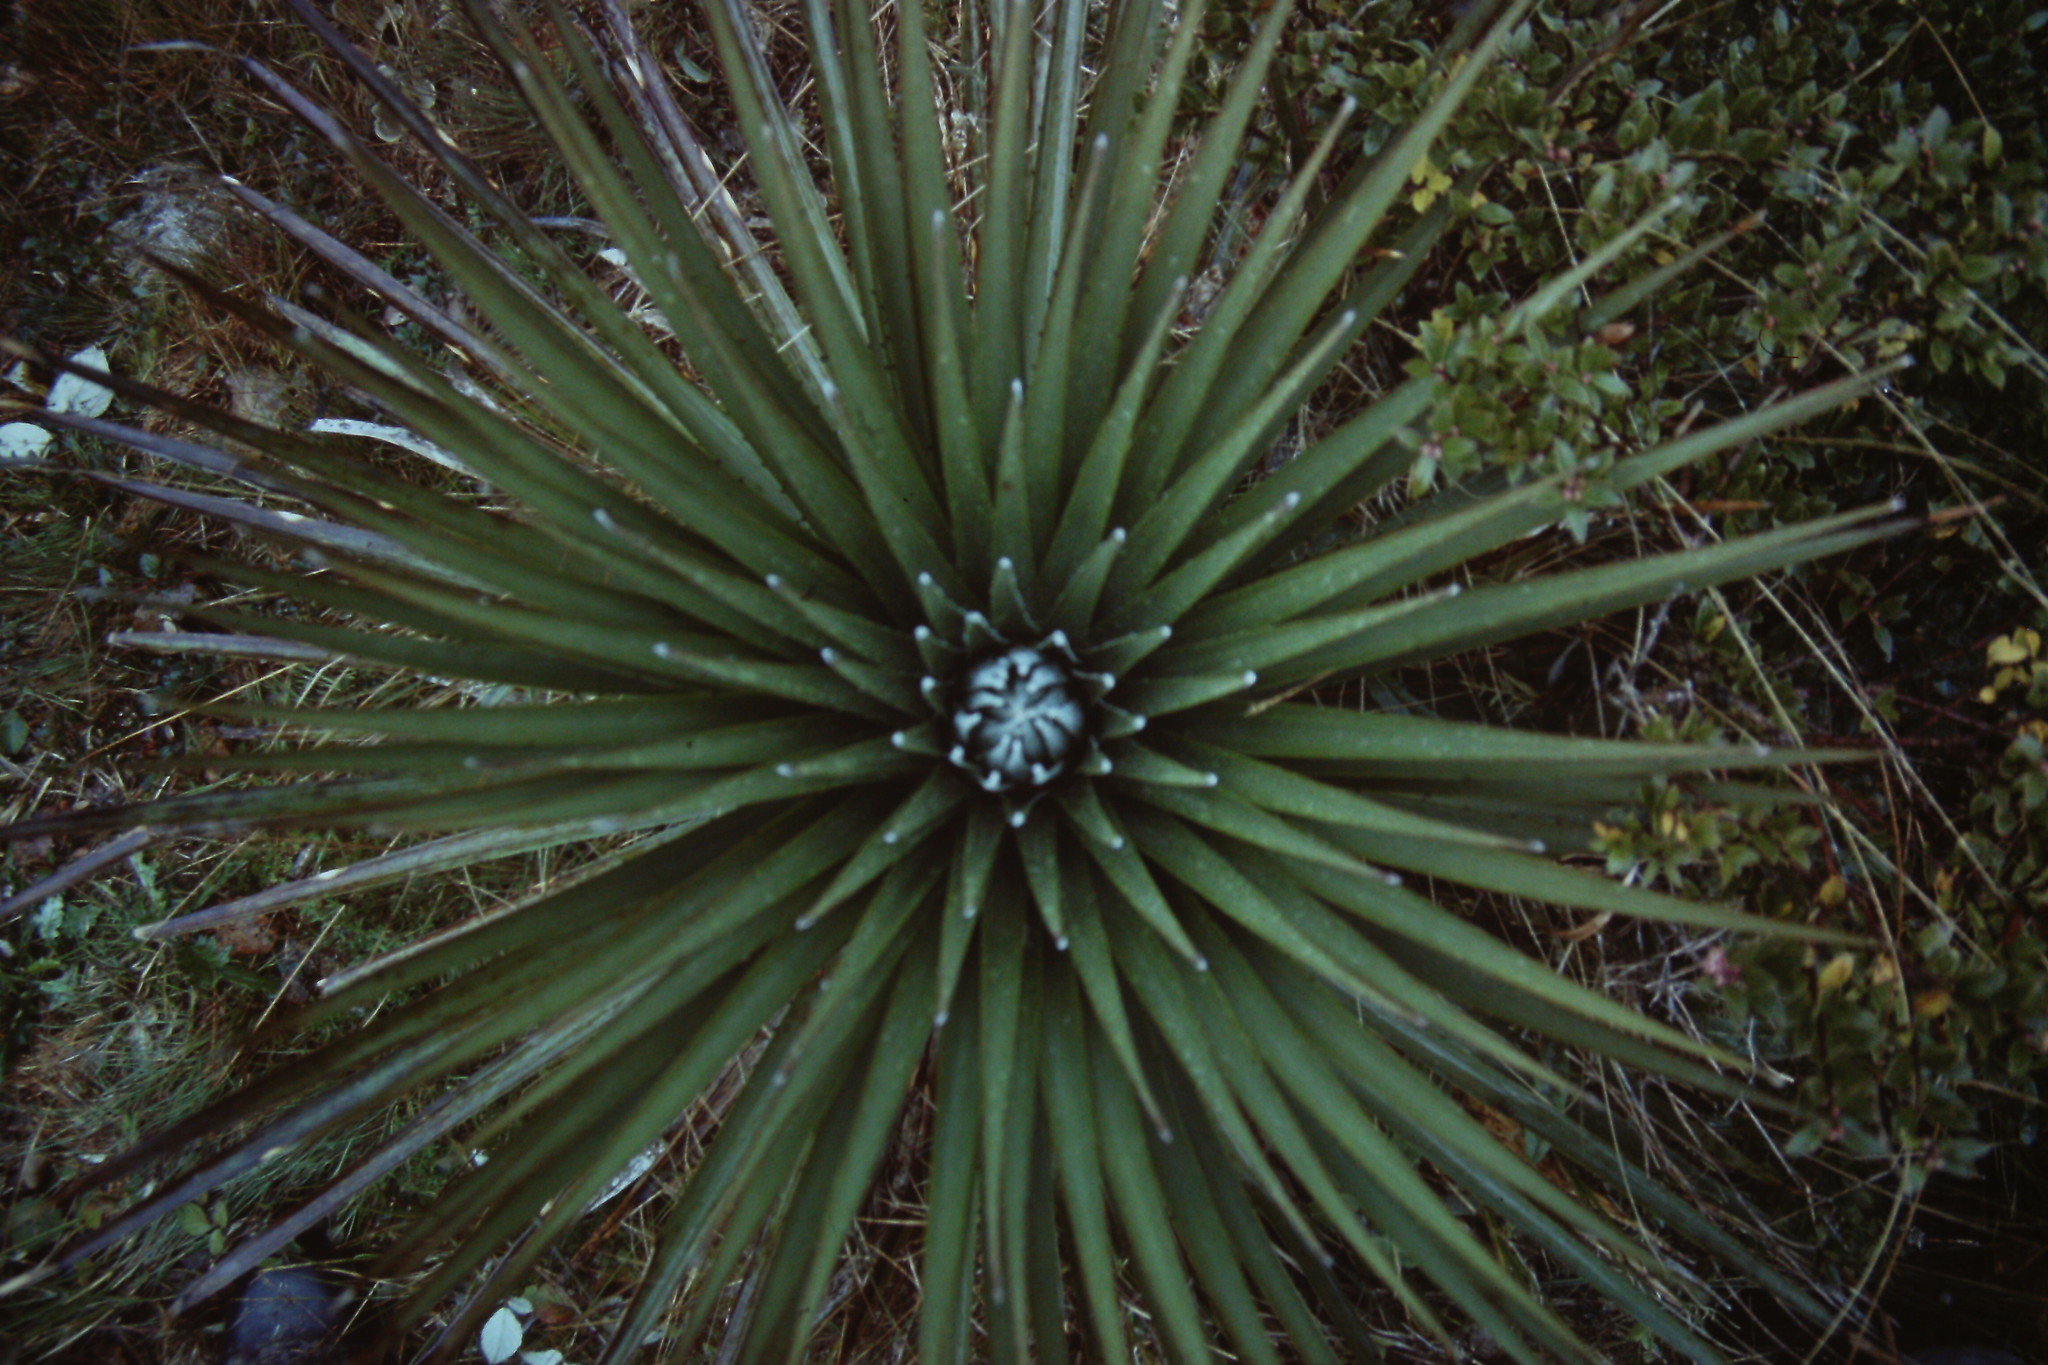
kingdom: Plantae
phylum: Tracheophyta
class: Liliopsida
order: Poales
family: Bromeliaceae
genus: Puya
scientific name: Puya dasylirioides
